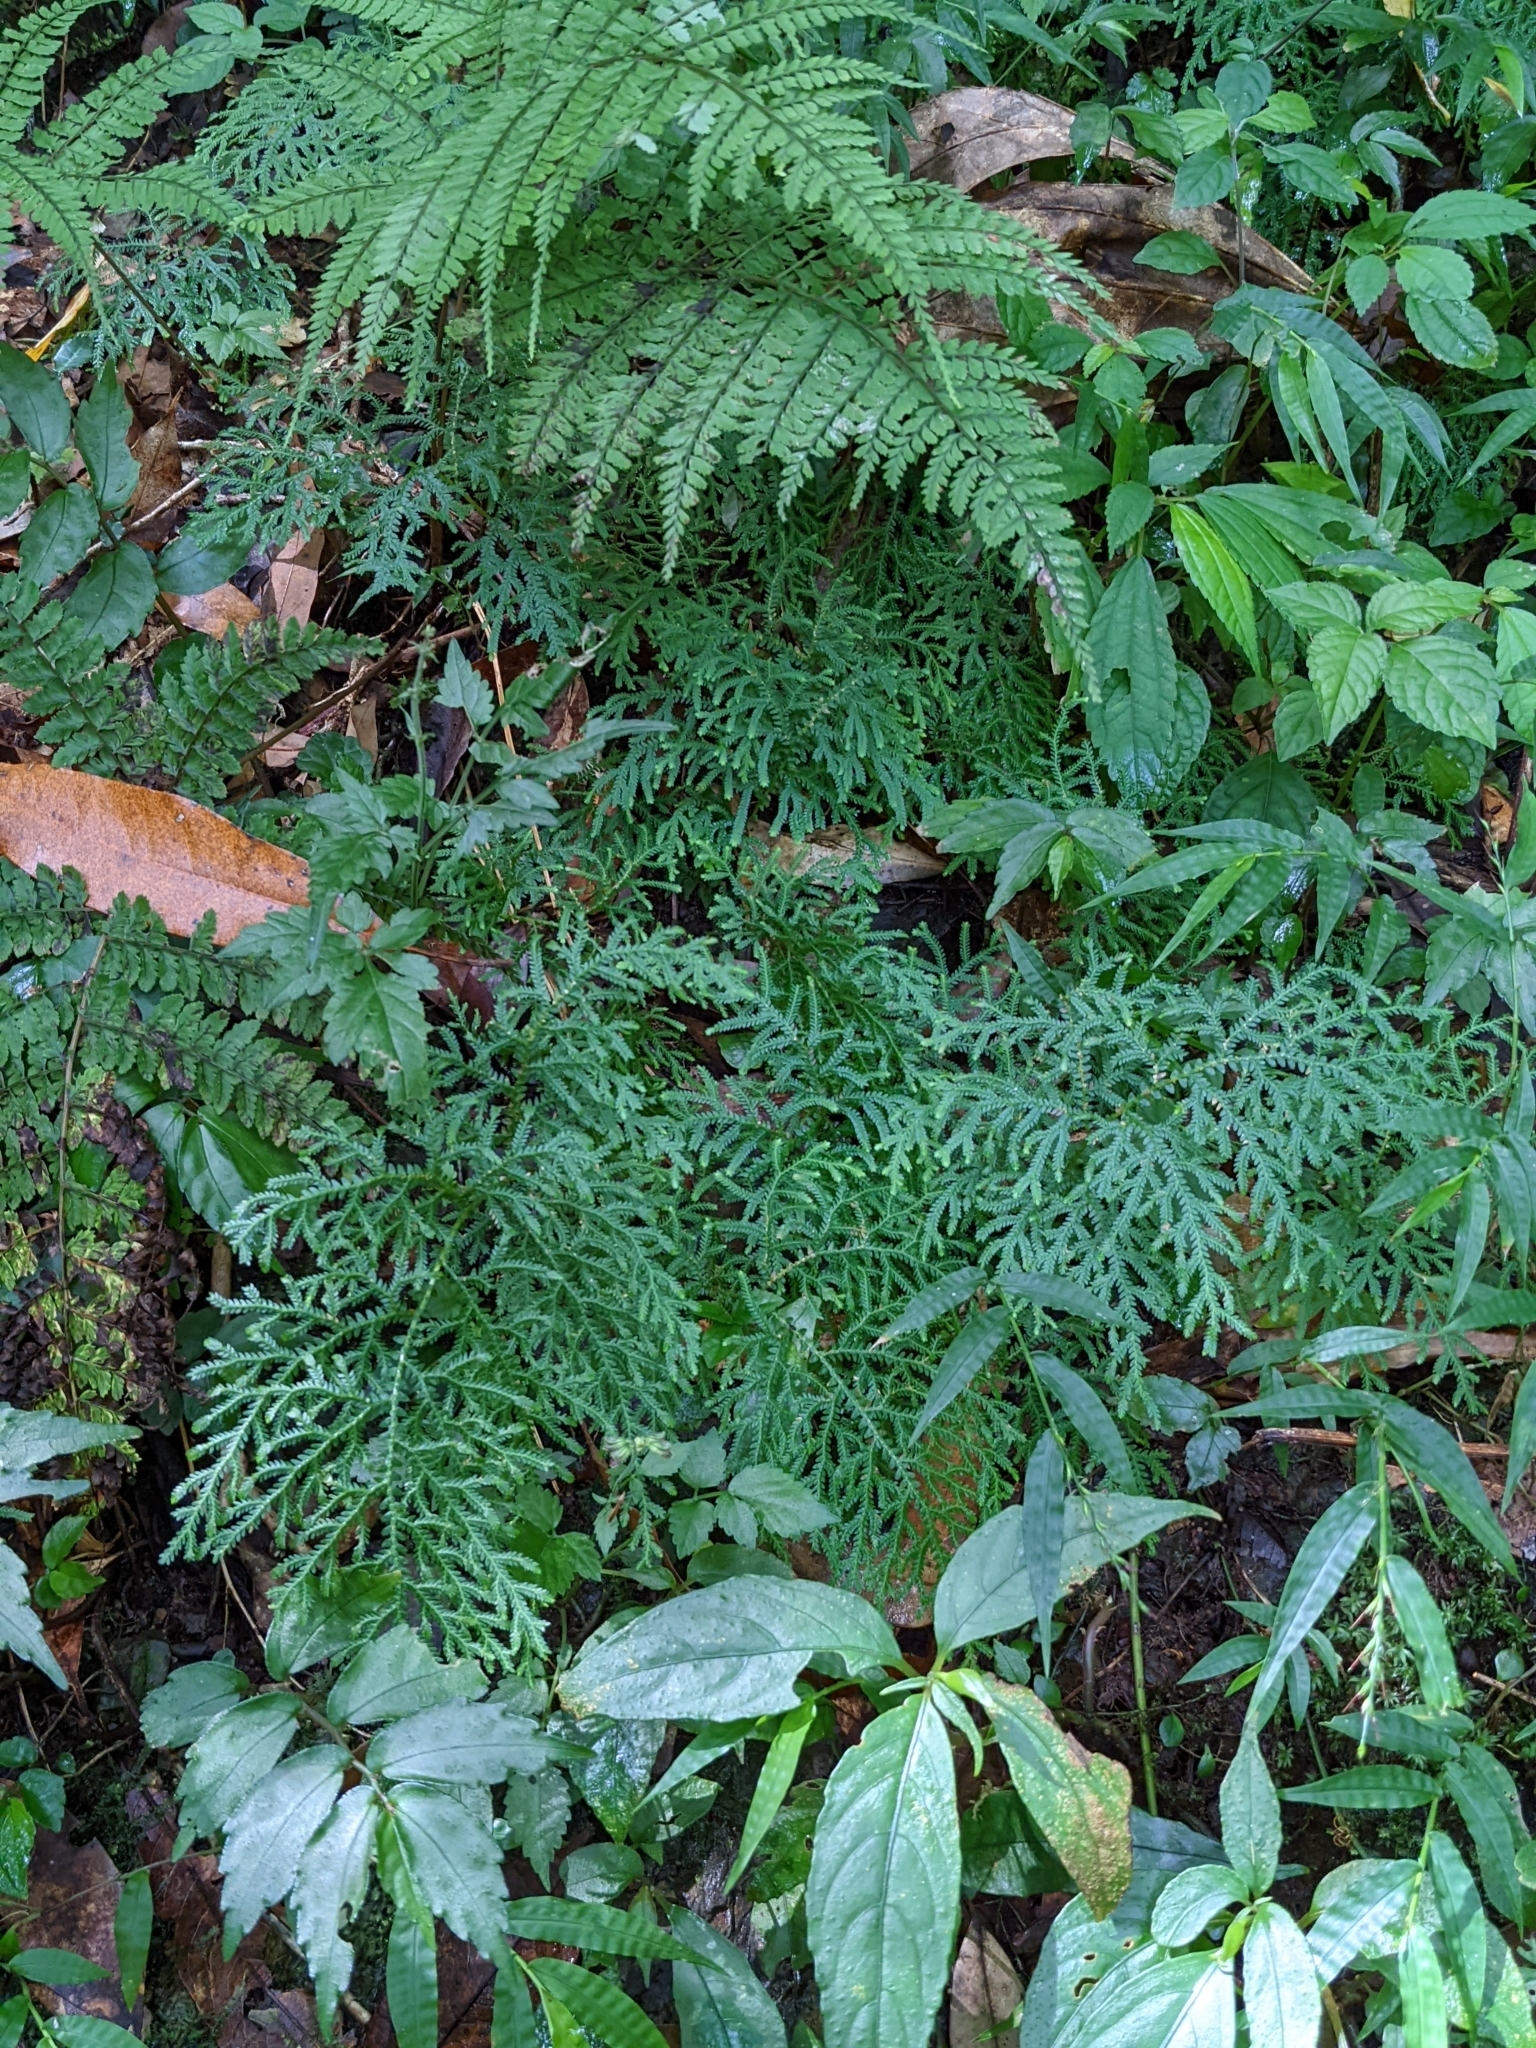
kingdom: Plantae
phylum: Tracheophyta
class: Lycopodiopsida
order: Selaginellales
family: Selaginellaceae
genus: Selaginella
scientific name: Selaginella labordei
